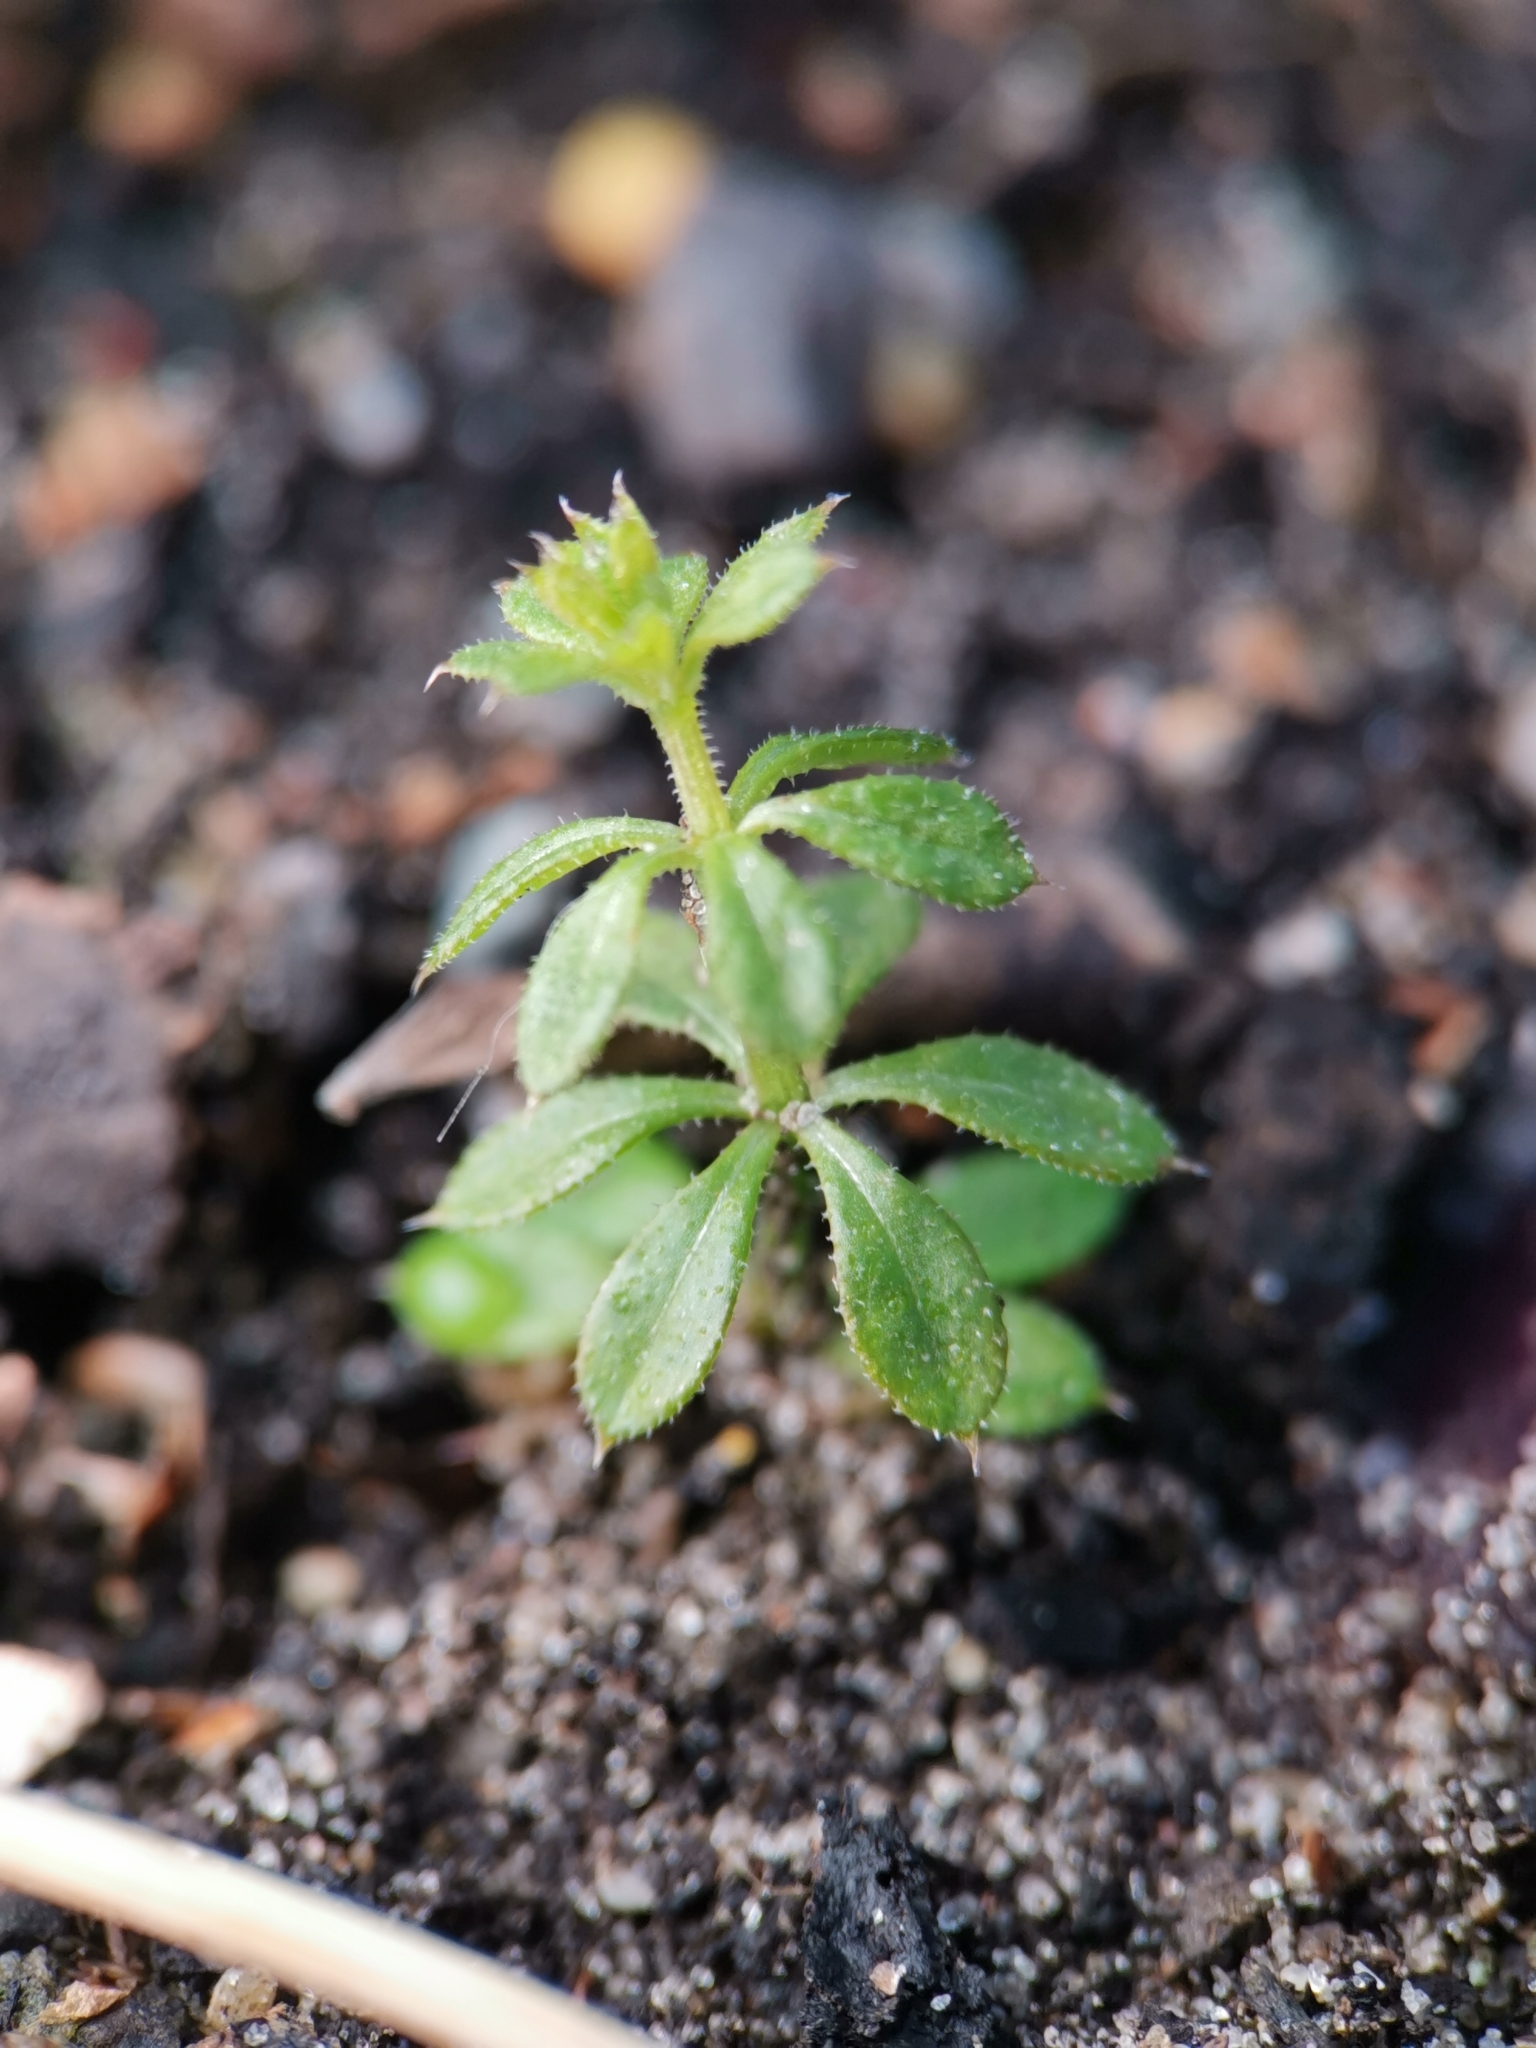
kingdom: Plantae
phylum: Tracheophyta
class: Magnoliopsida
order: Gentianales
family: Rubiaceae
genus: Galium
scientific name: Galium aparine
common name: Cleavers
